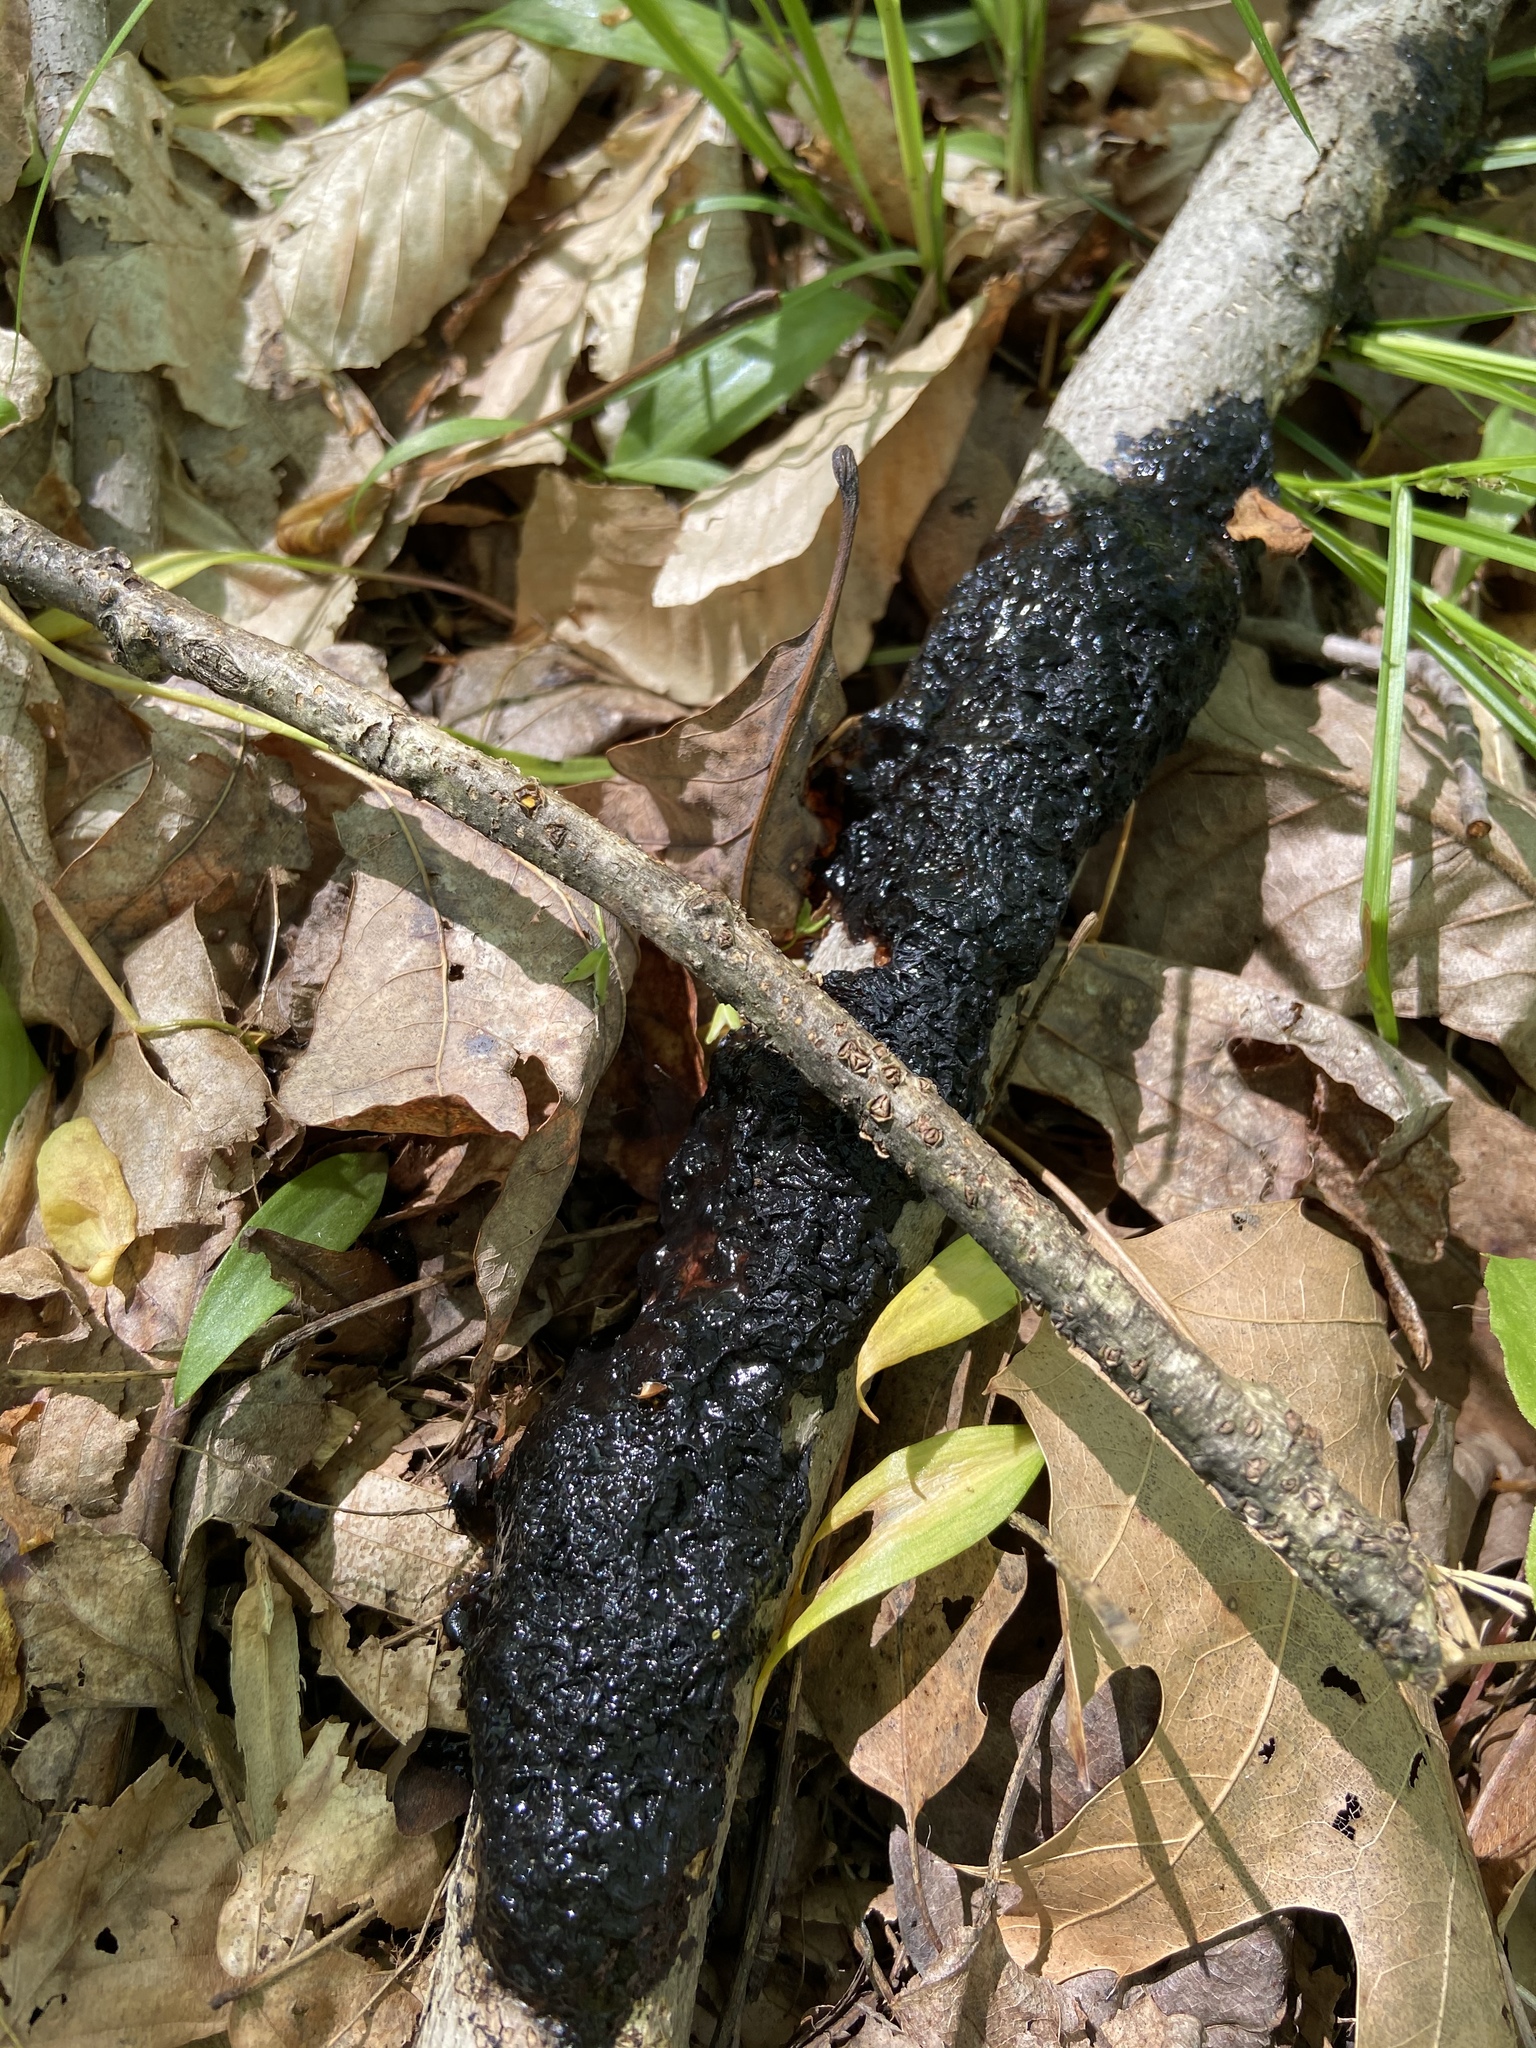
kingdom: Fungi
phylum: Basidiomycota
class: Agaricomycetes
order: Auriculariales
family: Auriculariaceae
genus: Exidia
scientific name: Exidia glandulosa
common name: Witches' butter
